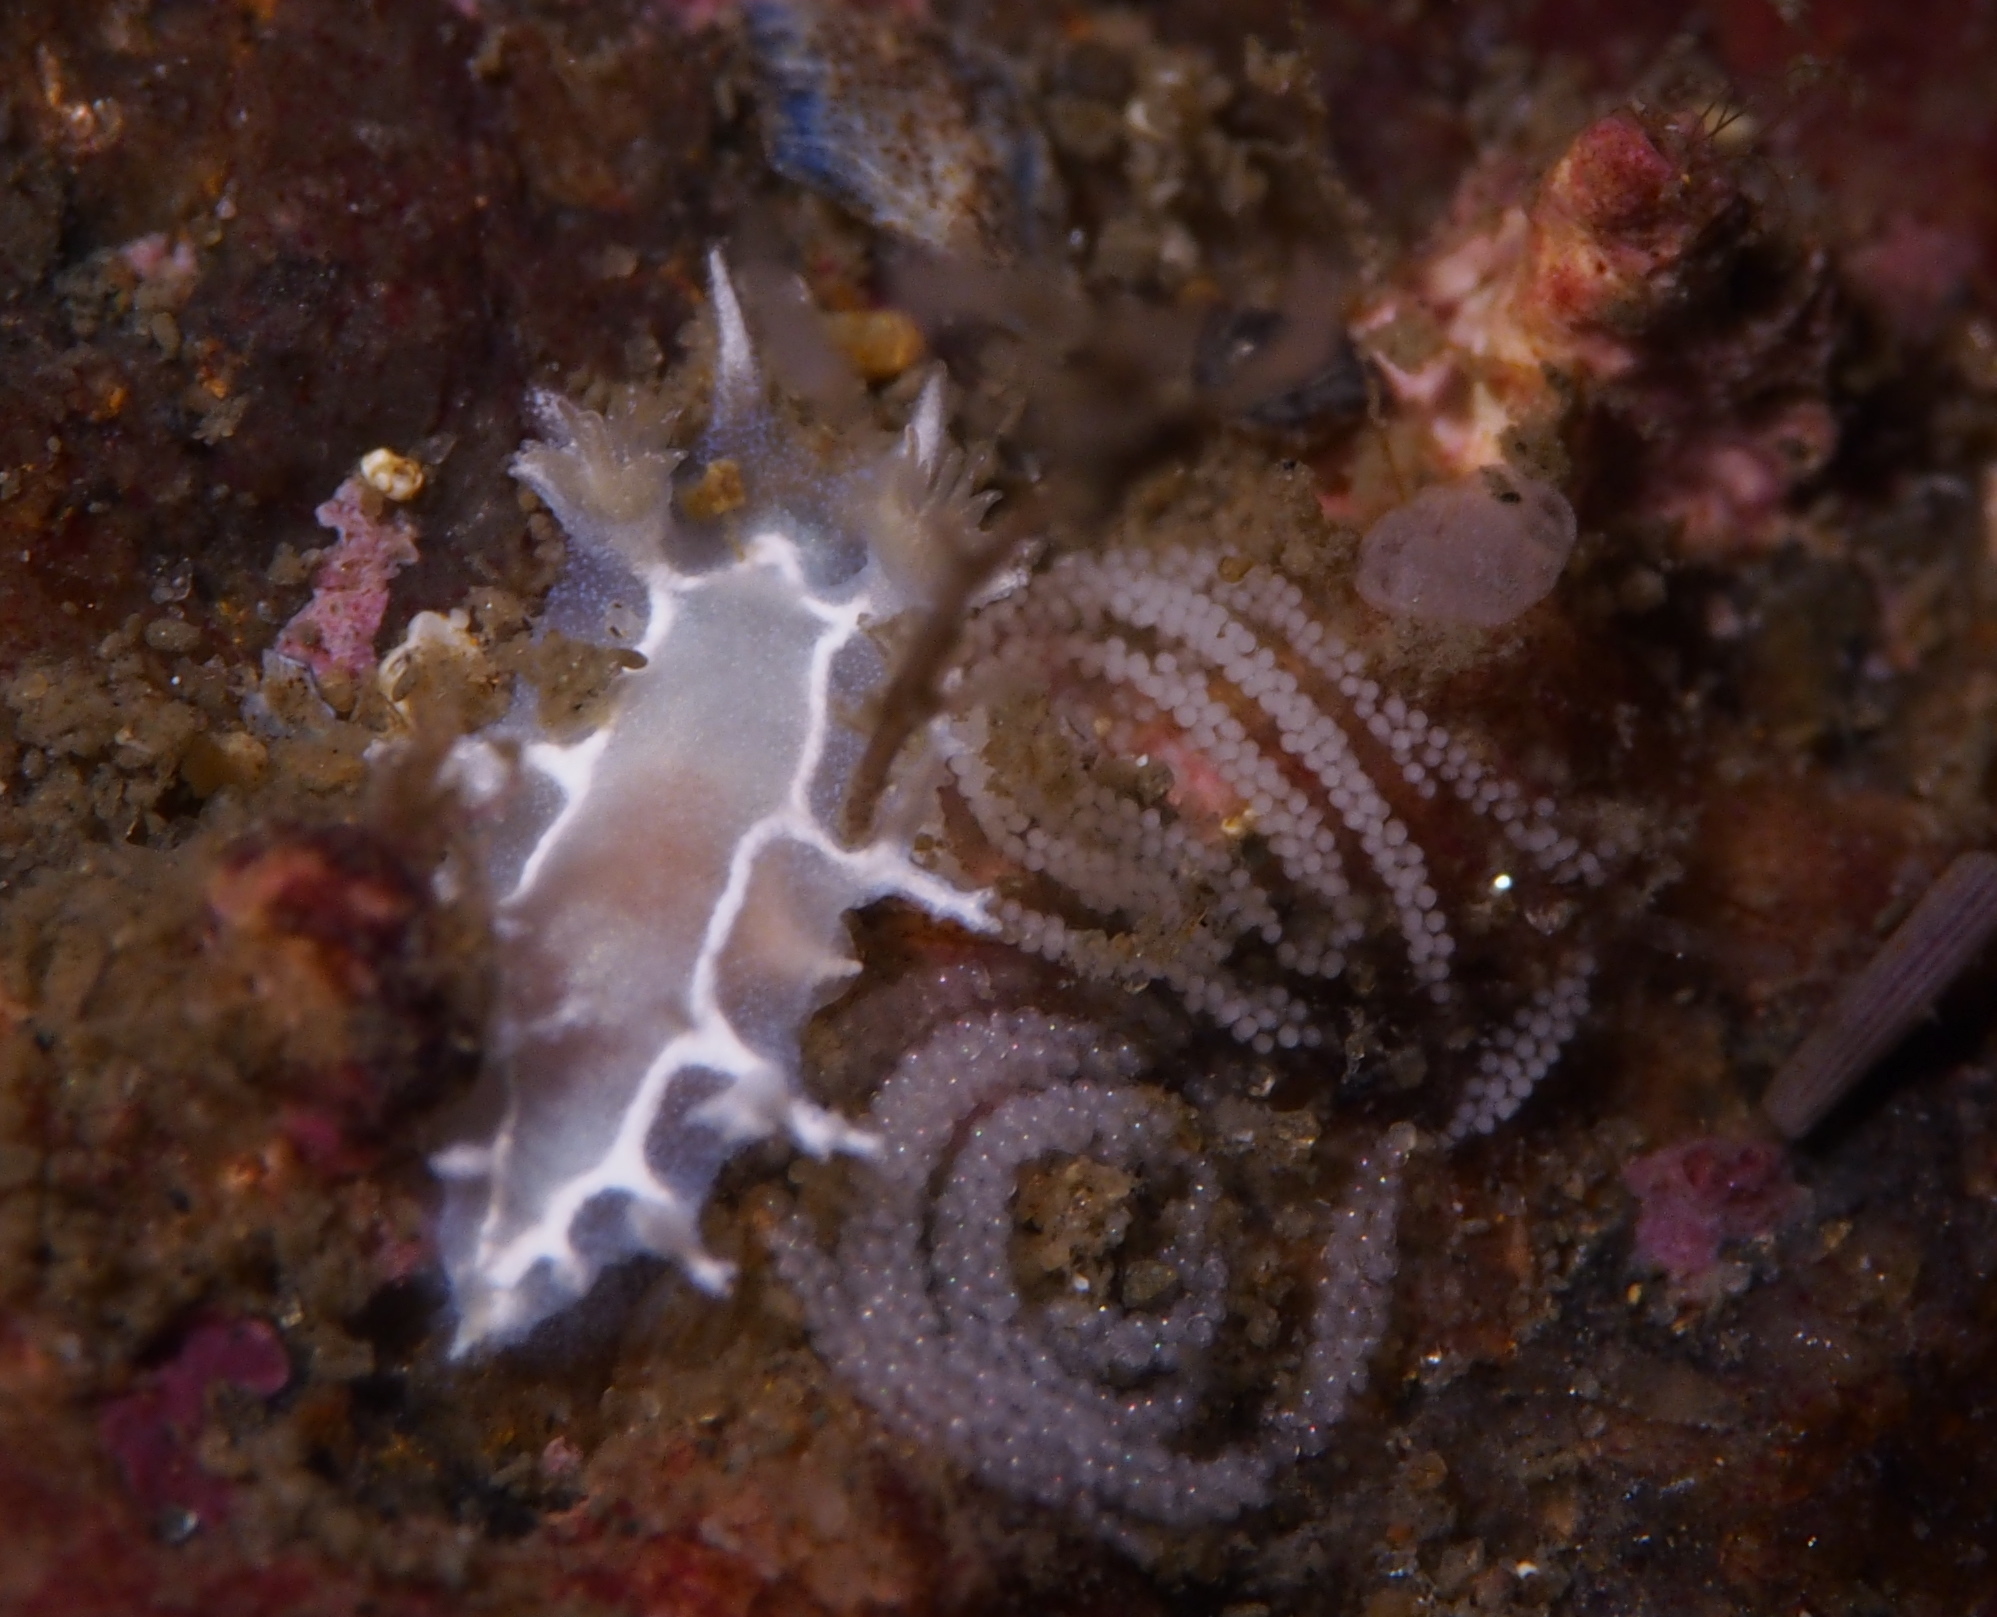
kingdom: Animalia
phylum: Mollusca
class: Gastropoda
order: Nudibranchia
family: Tritoniidae
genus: Duvaucelia
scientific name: Duvaucelia lineata
